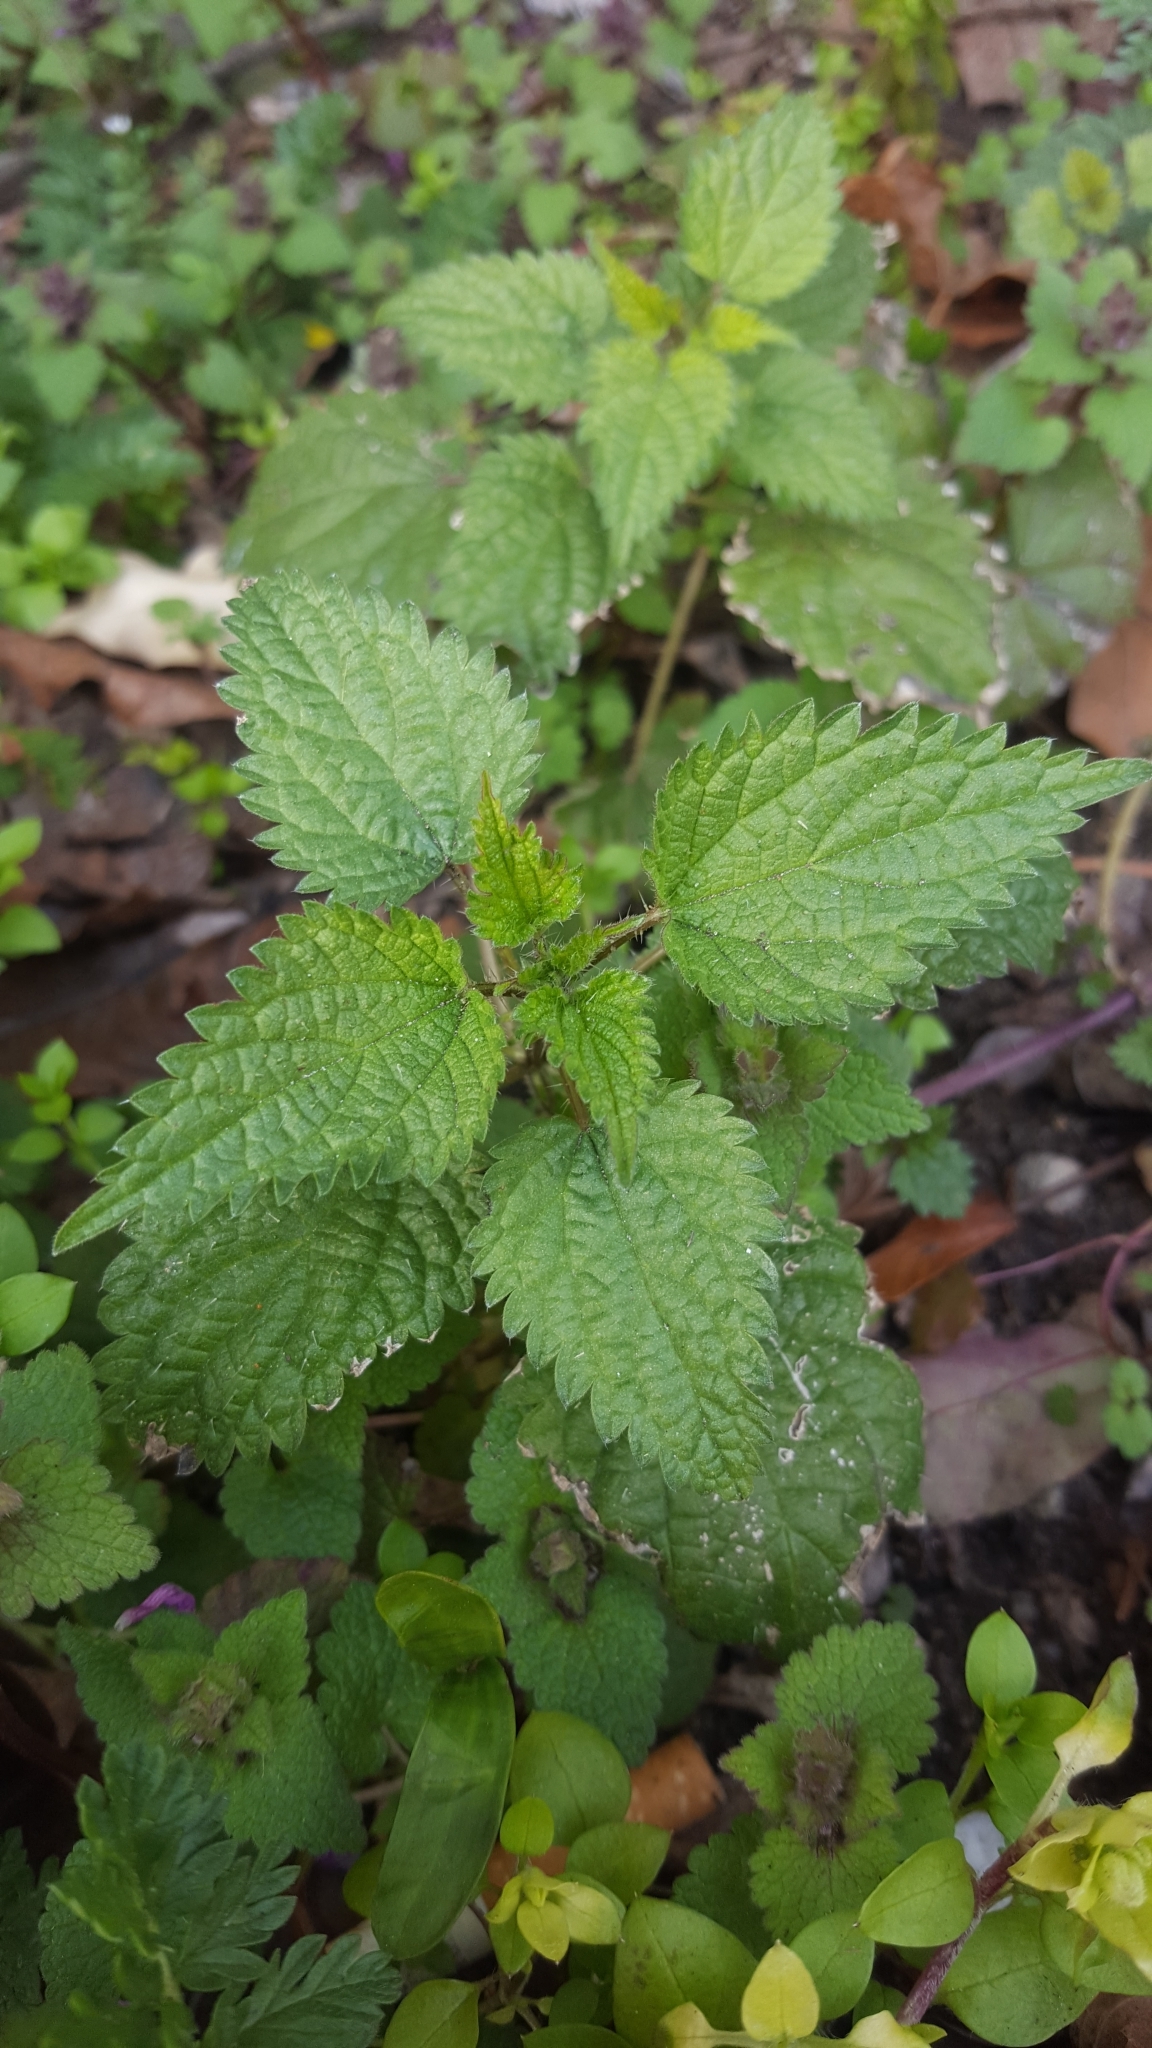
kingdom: Plantae
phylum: Tracheophyta
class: Magnoliopsida
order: Rosales
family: Urticaceae
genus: Urtica
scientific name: Urtica dioica
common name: Common nettle
